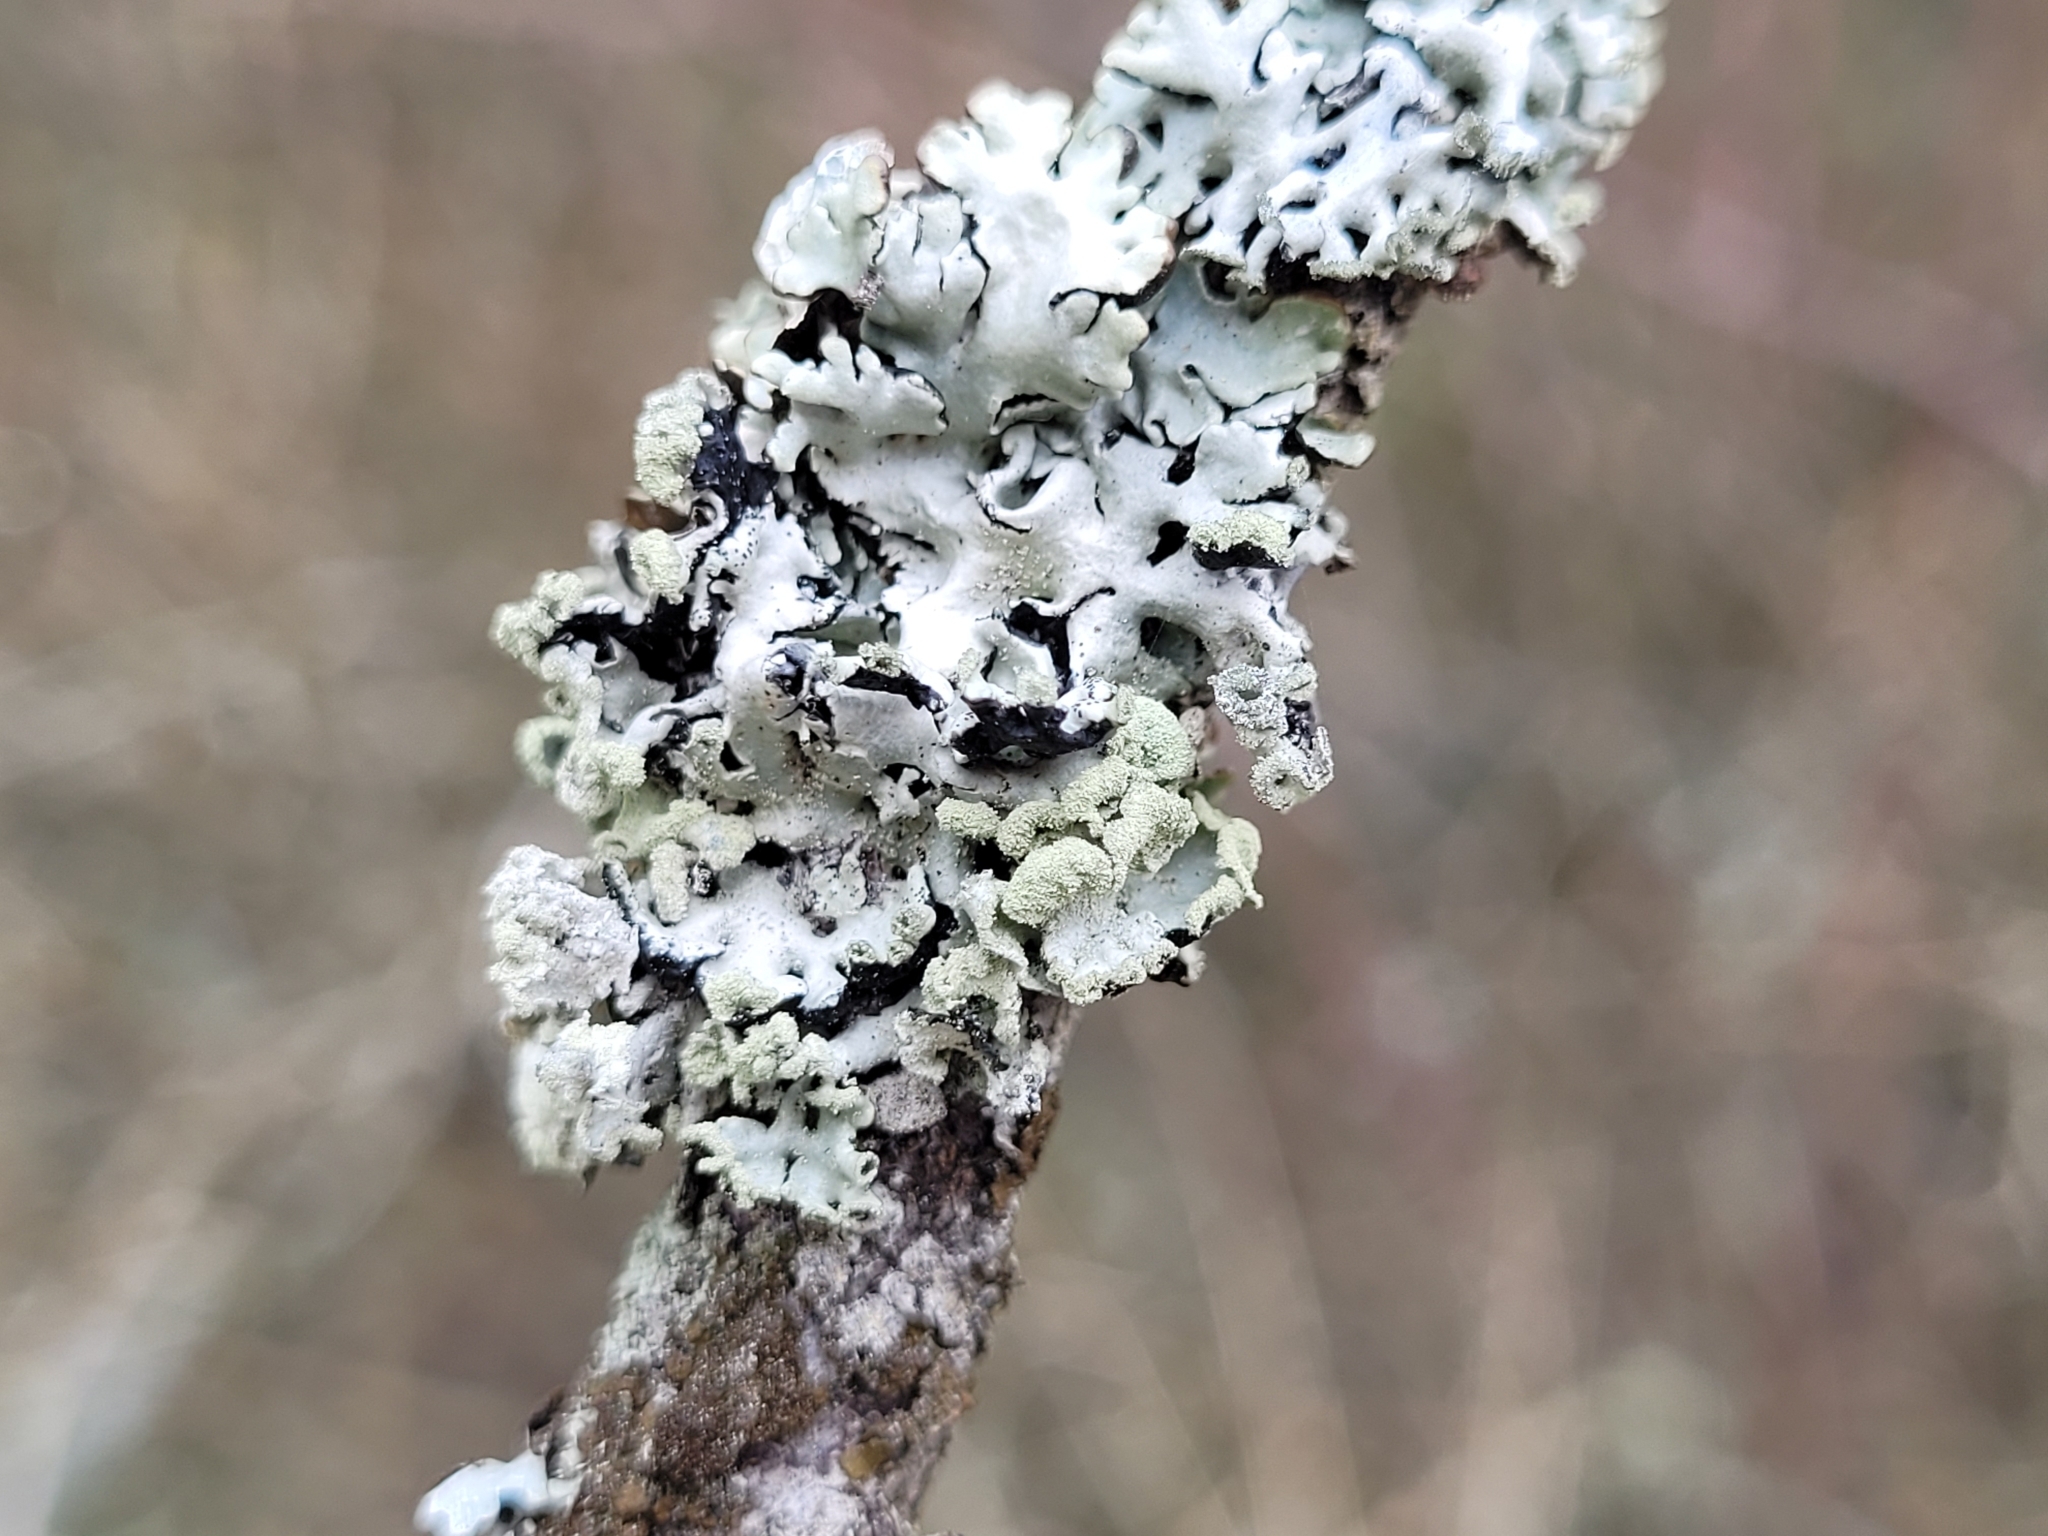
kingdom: Fungi
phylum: Ascomycota
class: Lecanoromycetes
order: Lecanorales
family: Parmeliaceae
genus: Hypogymnia
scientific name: Hypogymnia physodes
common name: Dark crottle
